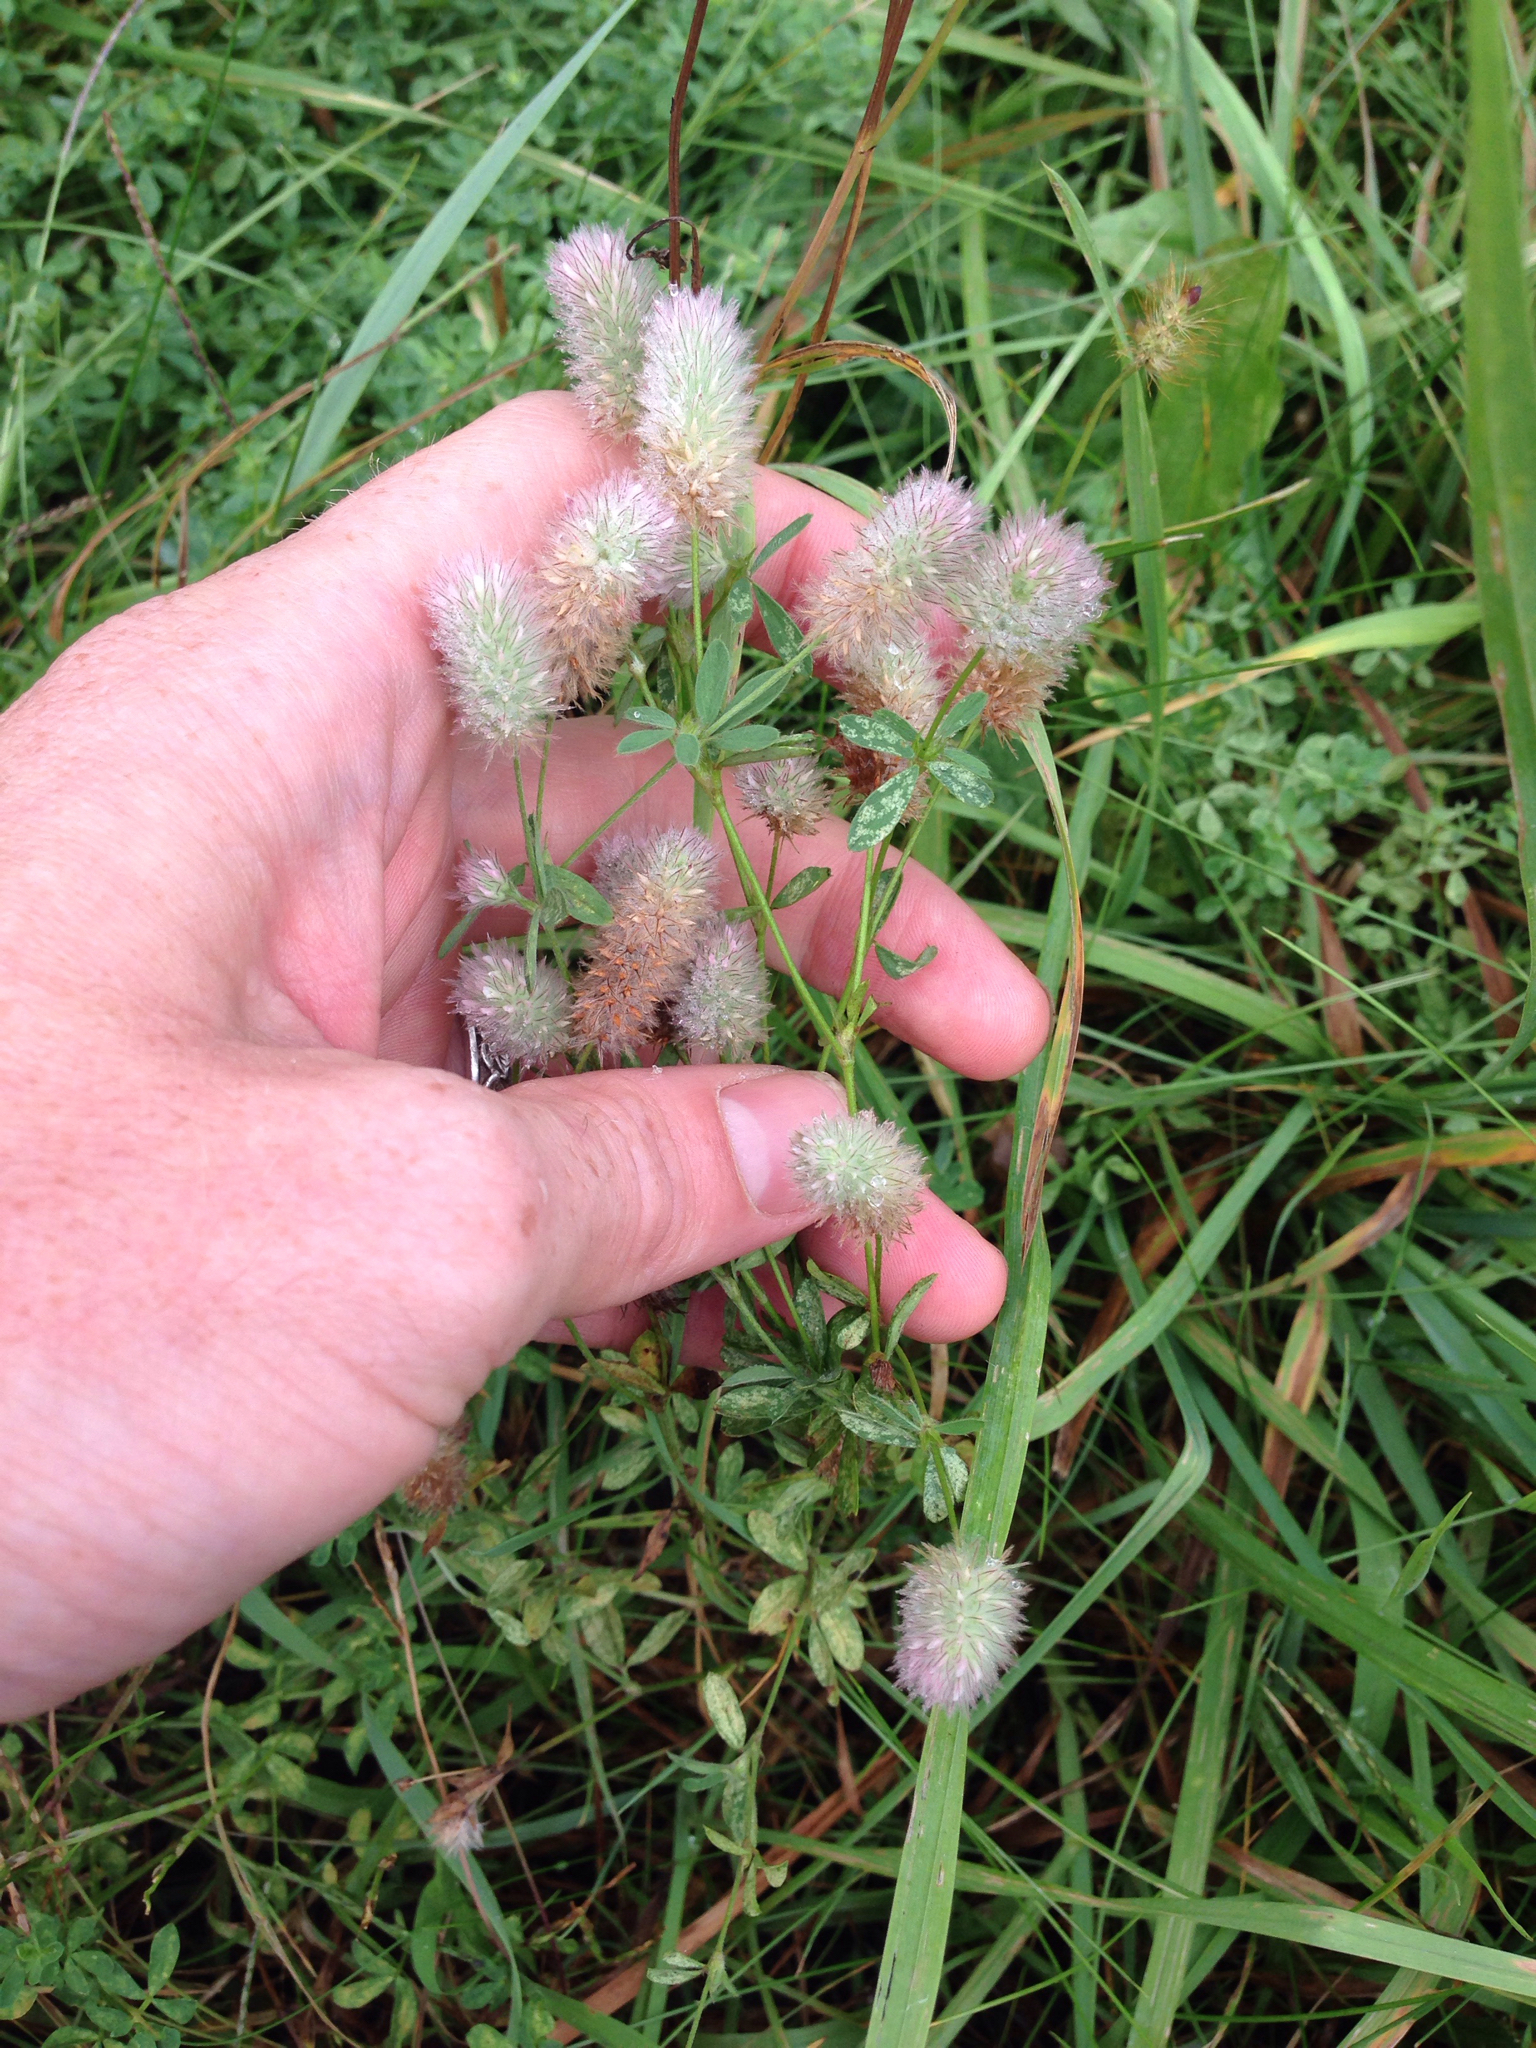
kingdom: Plantae
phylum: Tracheophyta
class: Magnoliopsida
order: Fabales
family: Fabaceae
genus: Trifolium
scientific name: Trifolium arvense
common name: Hare's-foot clover
